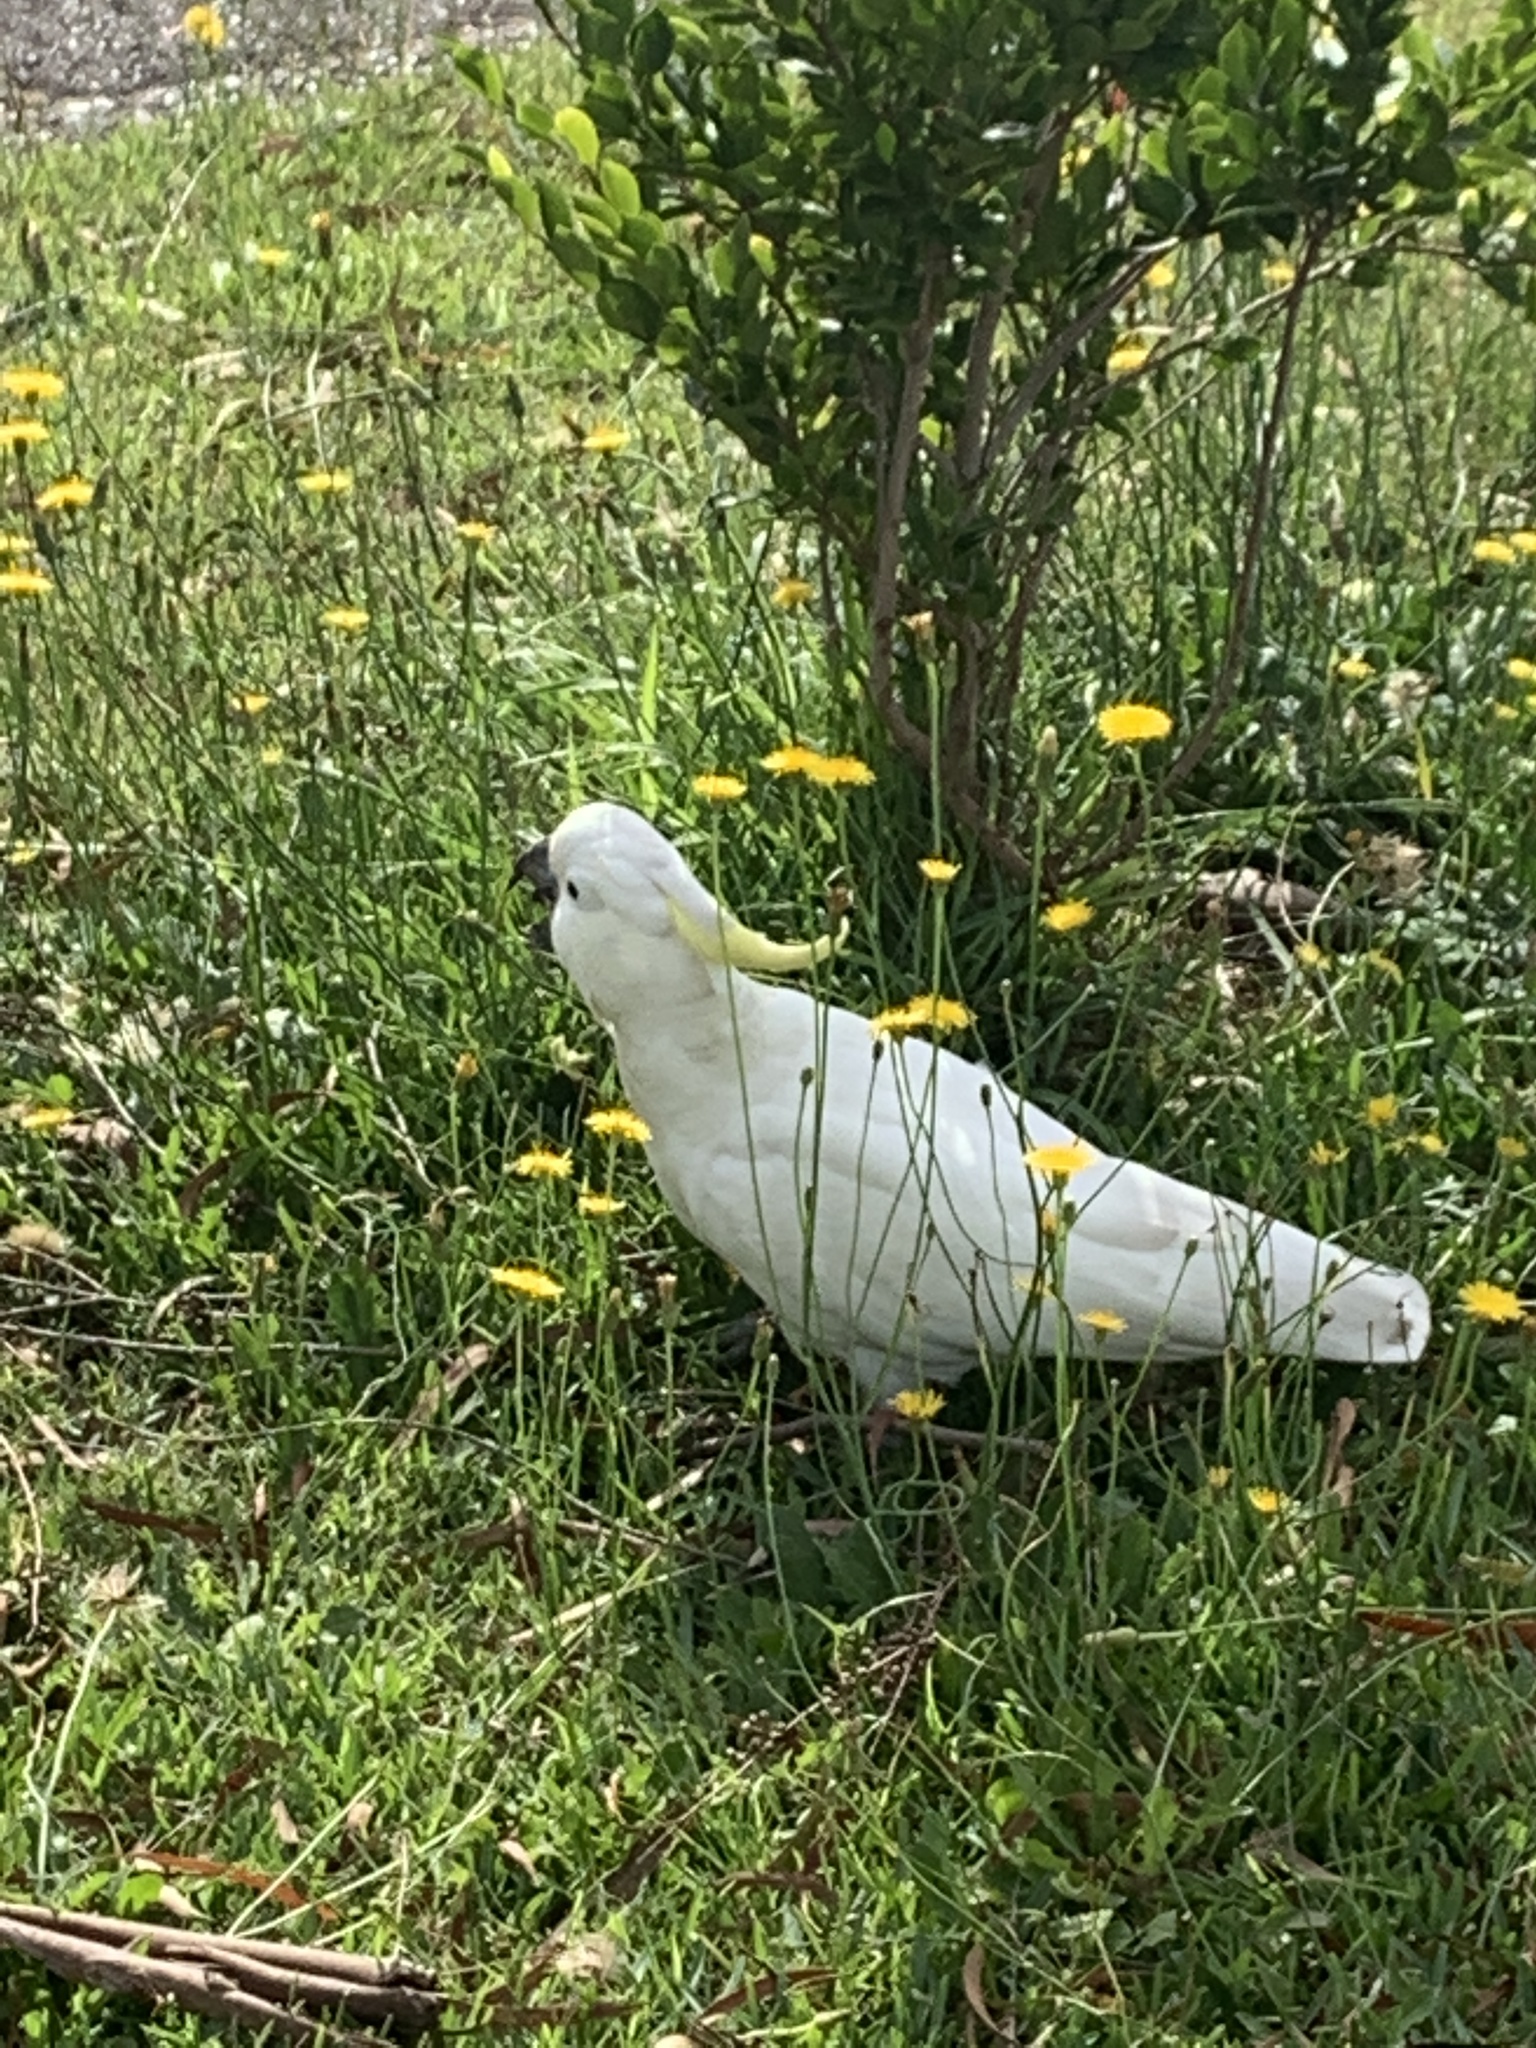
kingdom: Animalia
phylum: Chordata
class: Aves
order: Psittaciformes
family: Psittacidae
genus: Cacatua
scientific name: Cacatua galerita
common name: Sulphur-crested cockatoo
